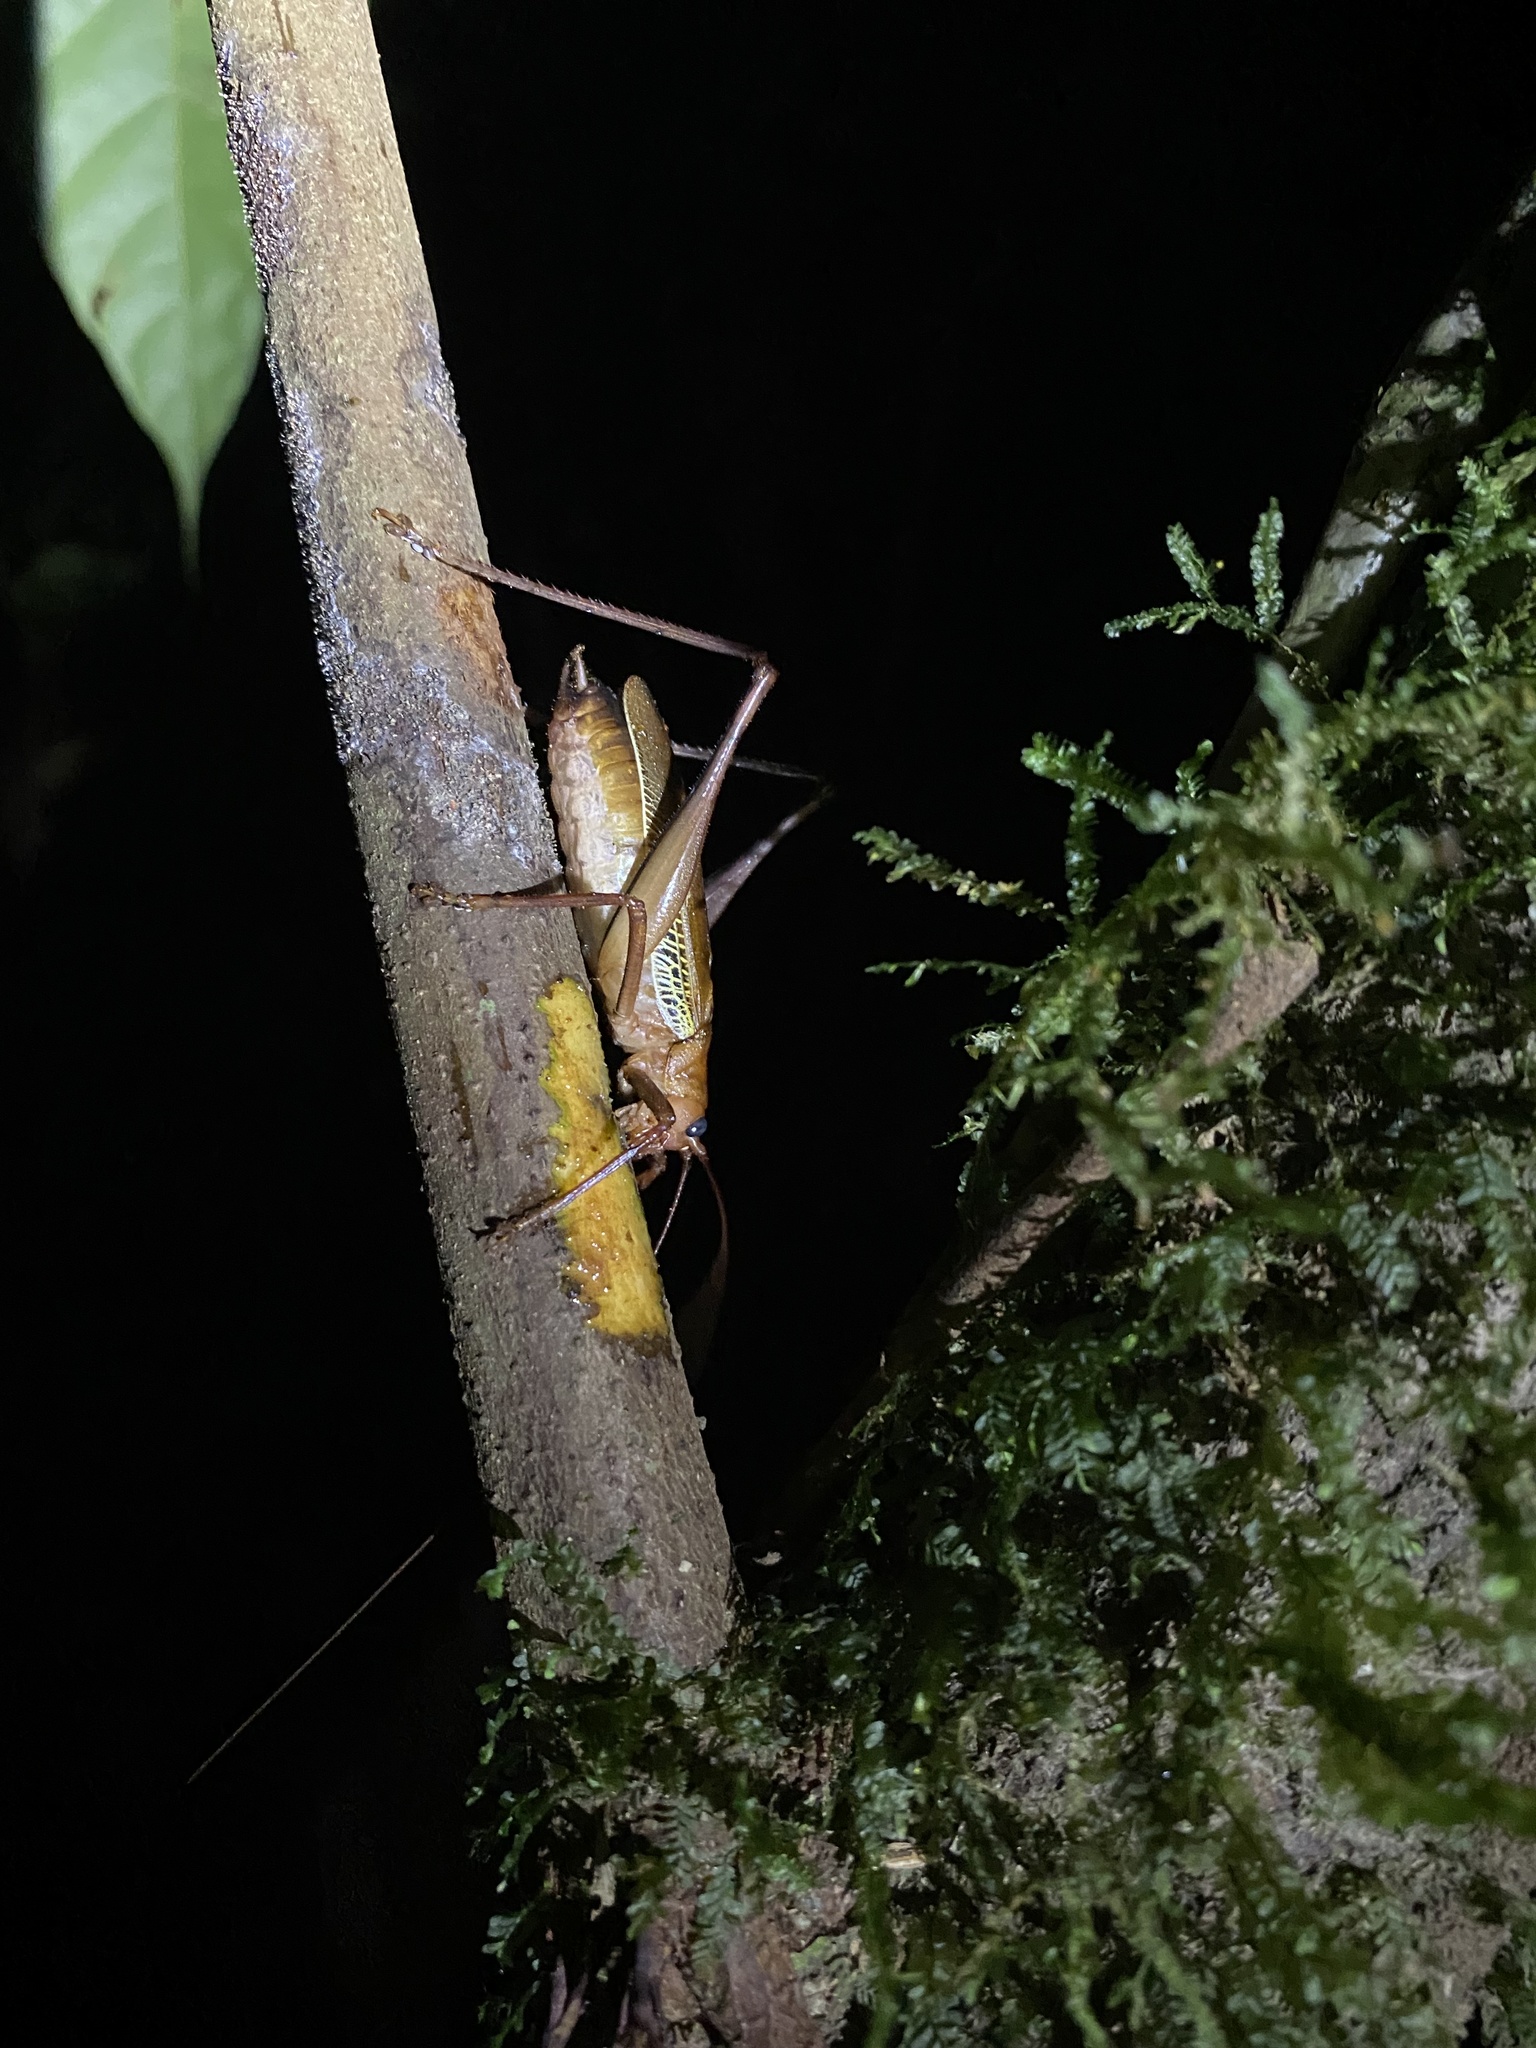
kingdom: Animalia
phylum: Arthropoda
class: Insecta
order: Orthoptera
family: Tettigoniidae
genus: Ischnomela
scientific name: Ischnomela pulchripennis
